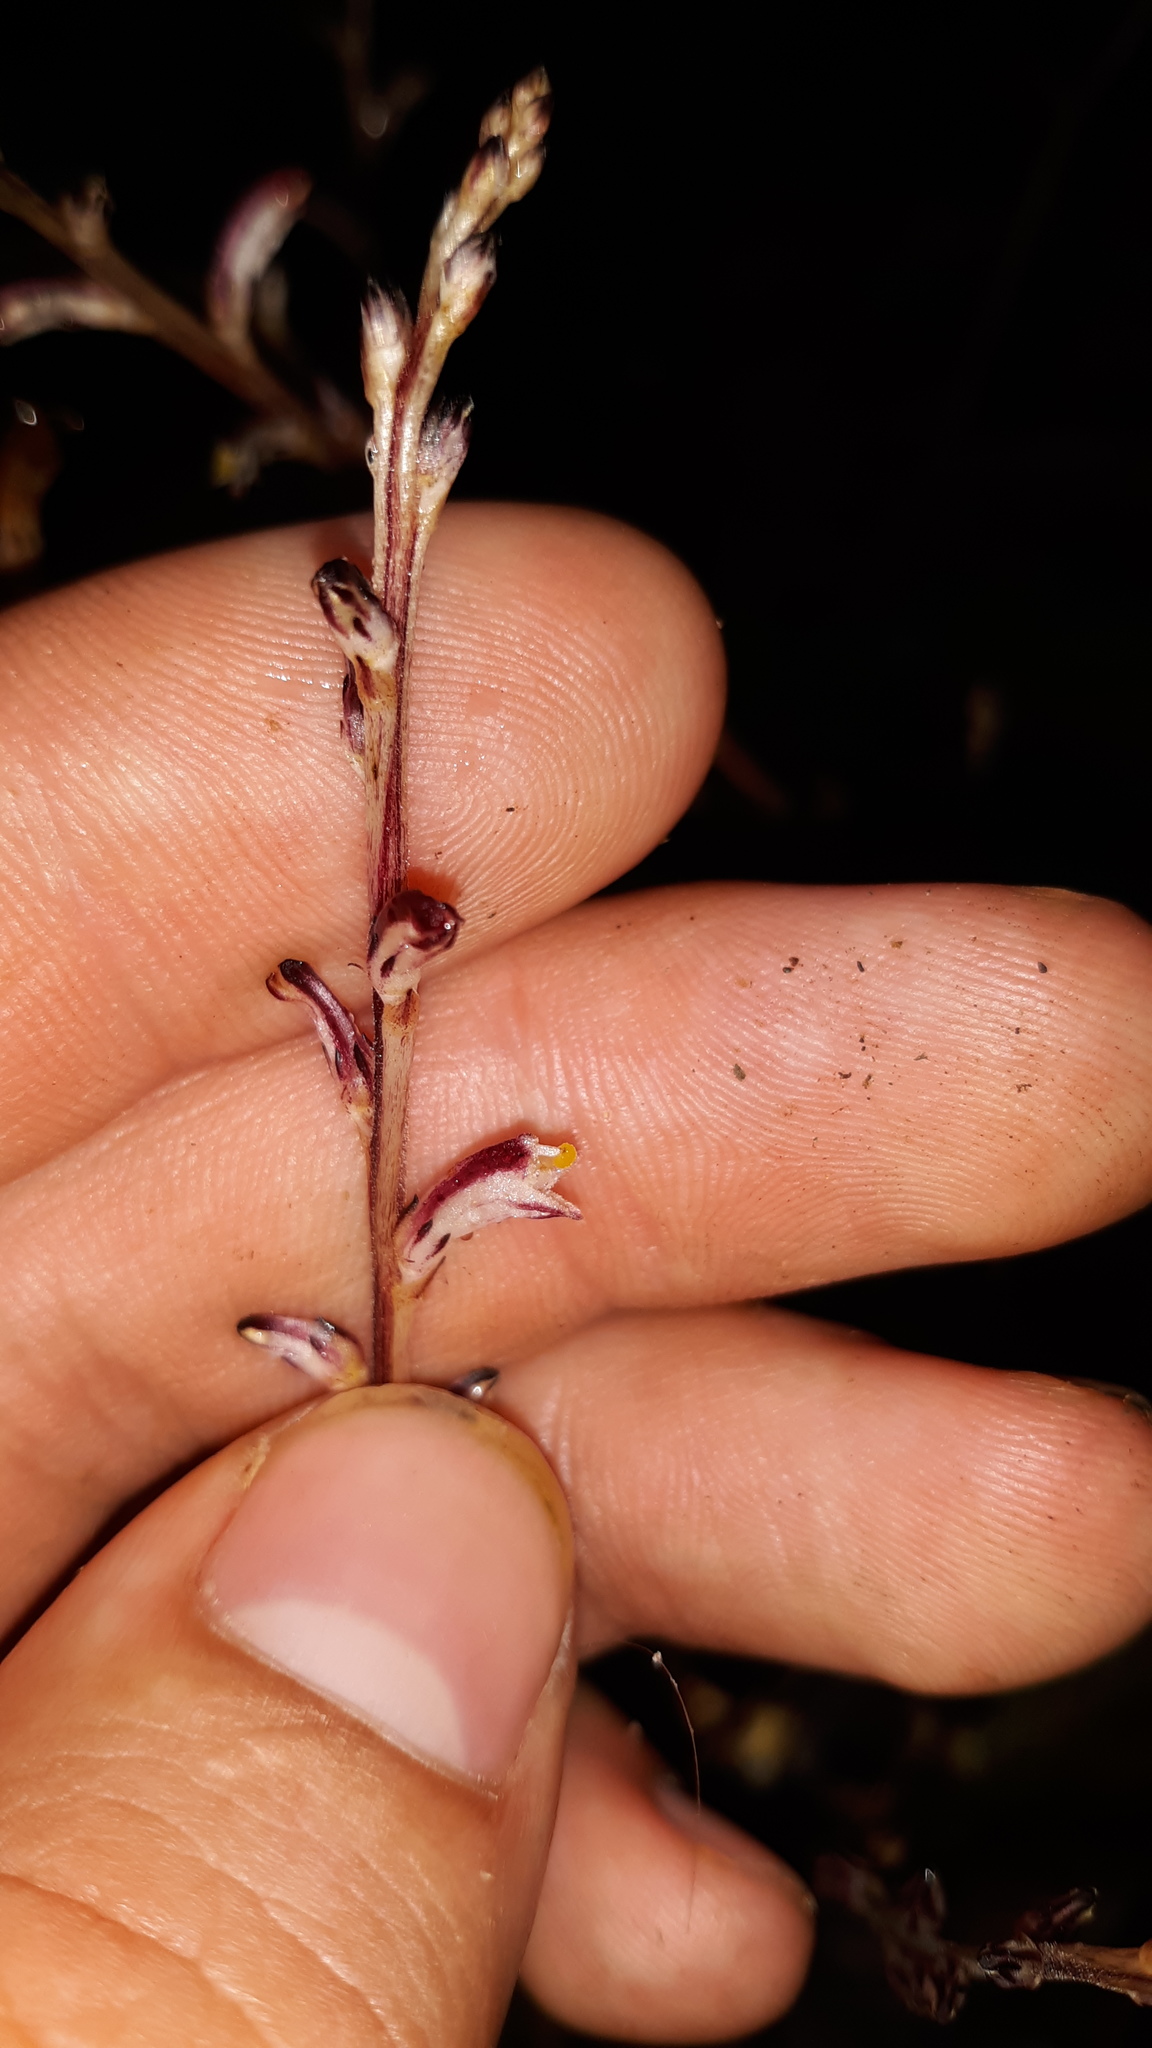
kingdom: Plantae
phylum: Tracheophyta
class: Magnoliopsida
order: Lamiales
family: Orobanchaceae
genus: Epifagus
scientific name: Epifagus virginiana
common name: Beechdrops
